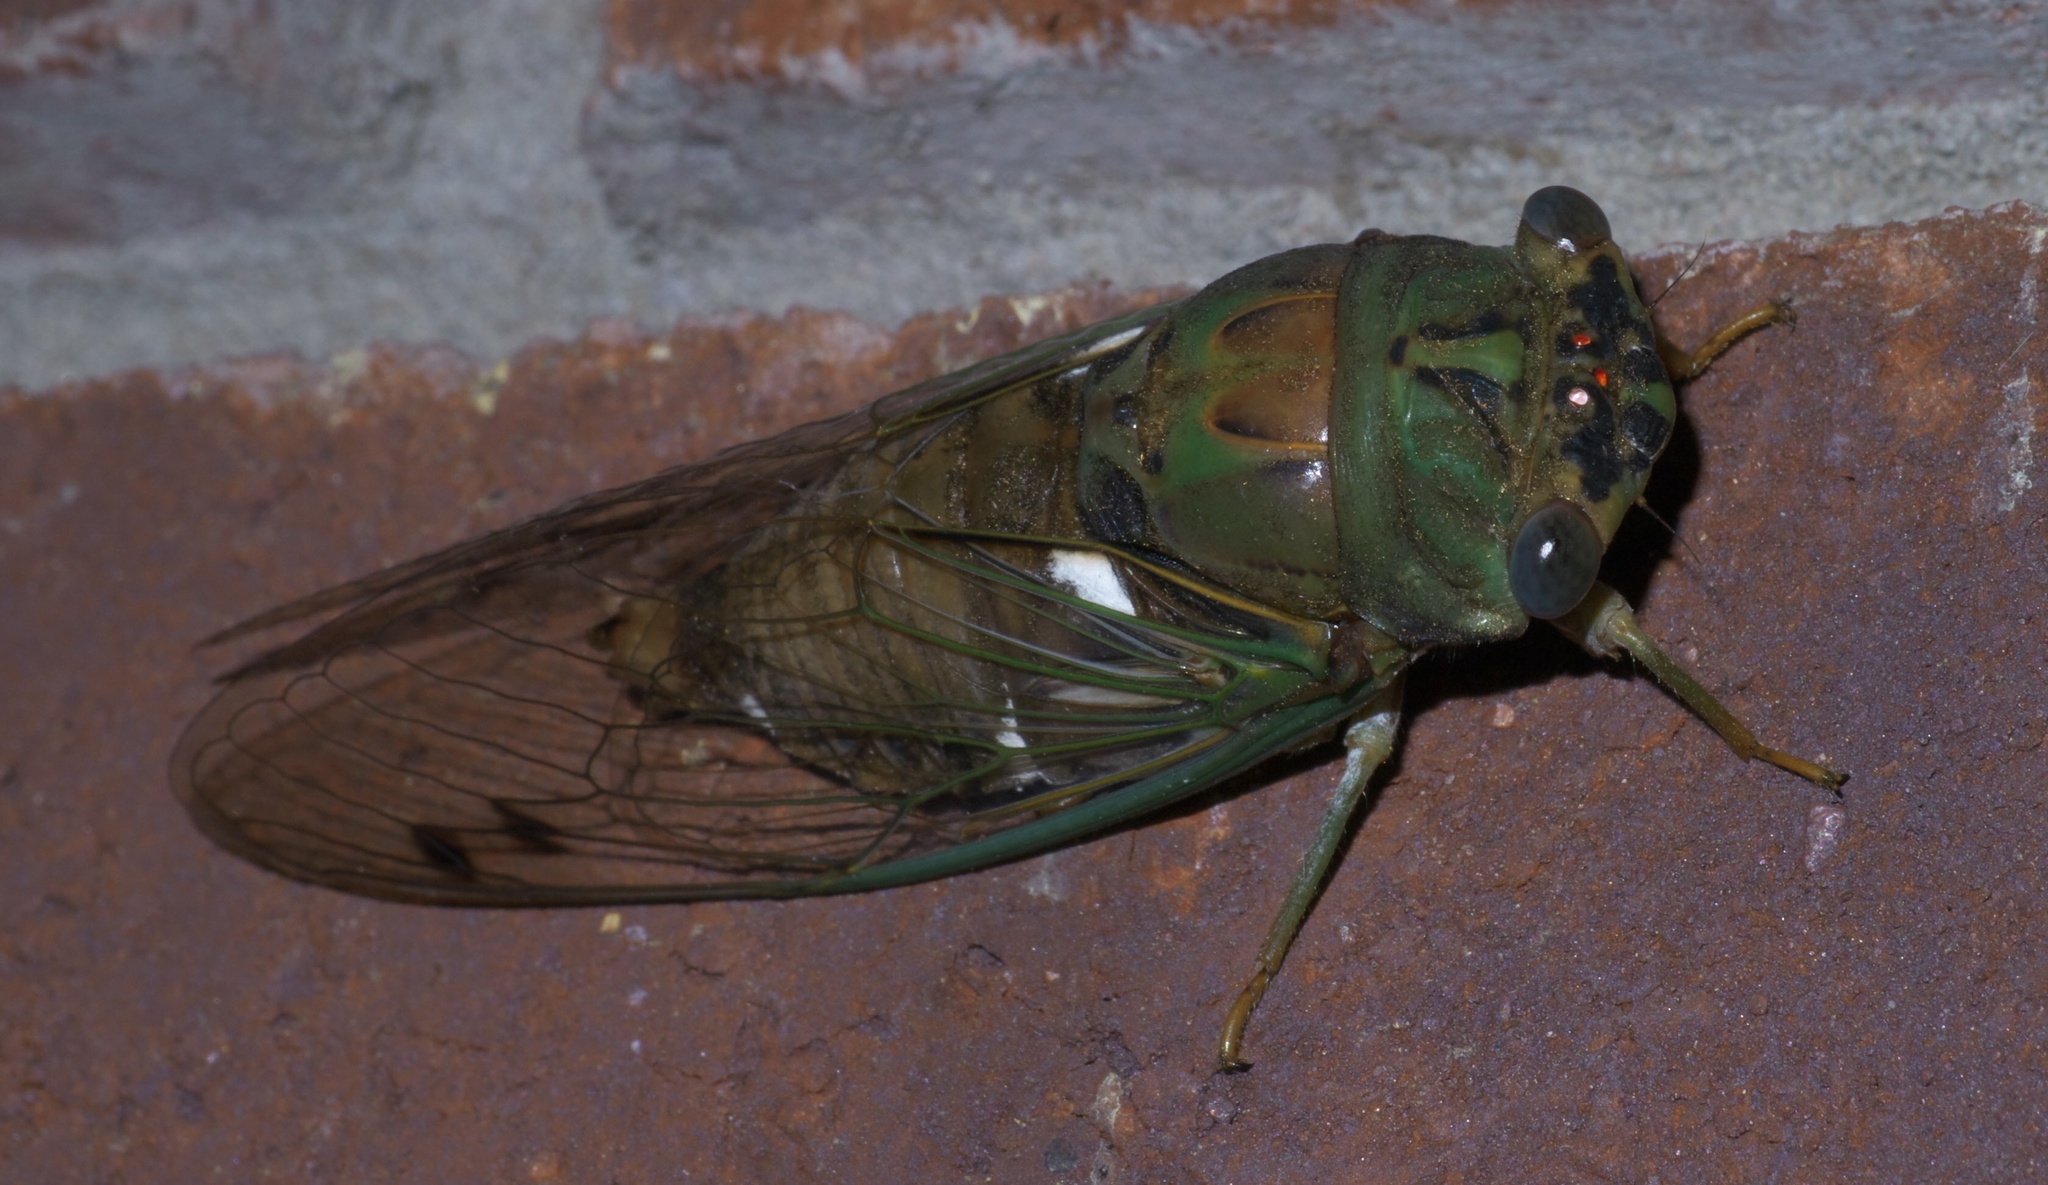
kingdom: Animalia
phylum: Arthropoda
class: Insecta
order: Hemiptera
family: Cicadidae
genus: Neotibicen
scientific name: Neotibicen pruinosus
